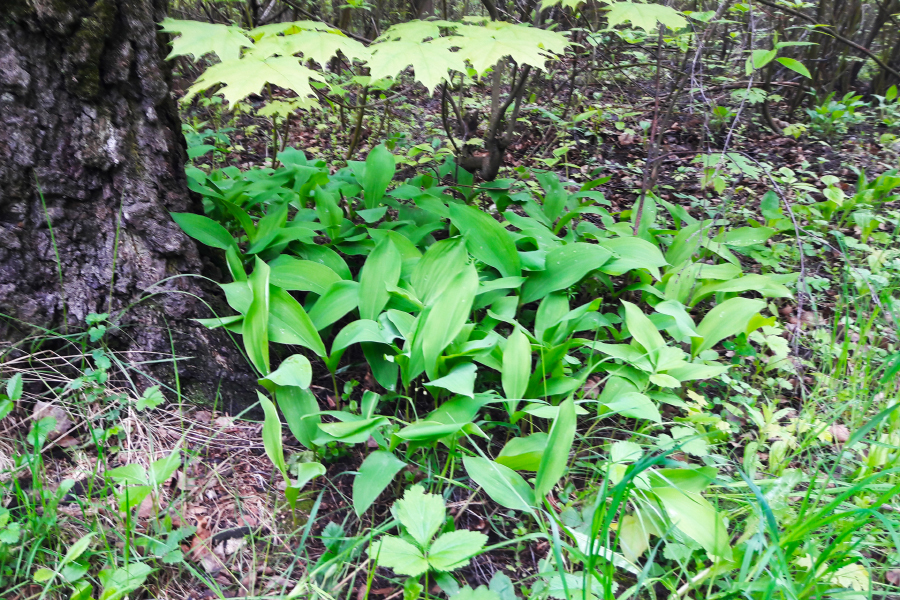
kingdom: Plantae
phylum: Tracheophyta
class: Liliopsida
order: Asparagales
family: Asparagaceae
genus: Convallaria
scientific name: Convallaria majalis
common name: Lily-of-the-valley
